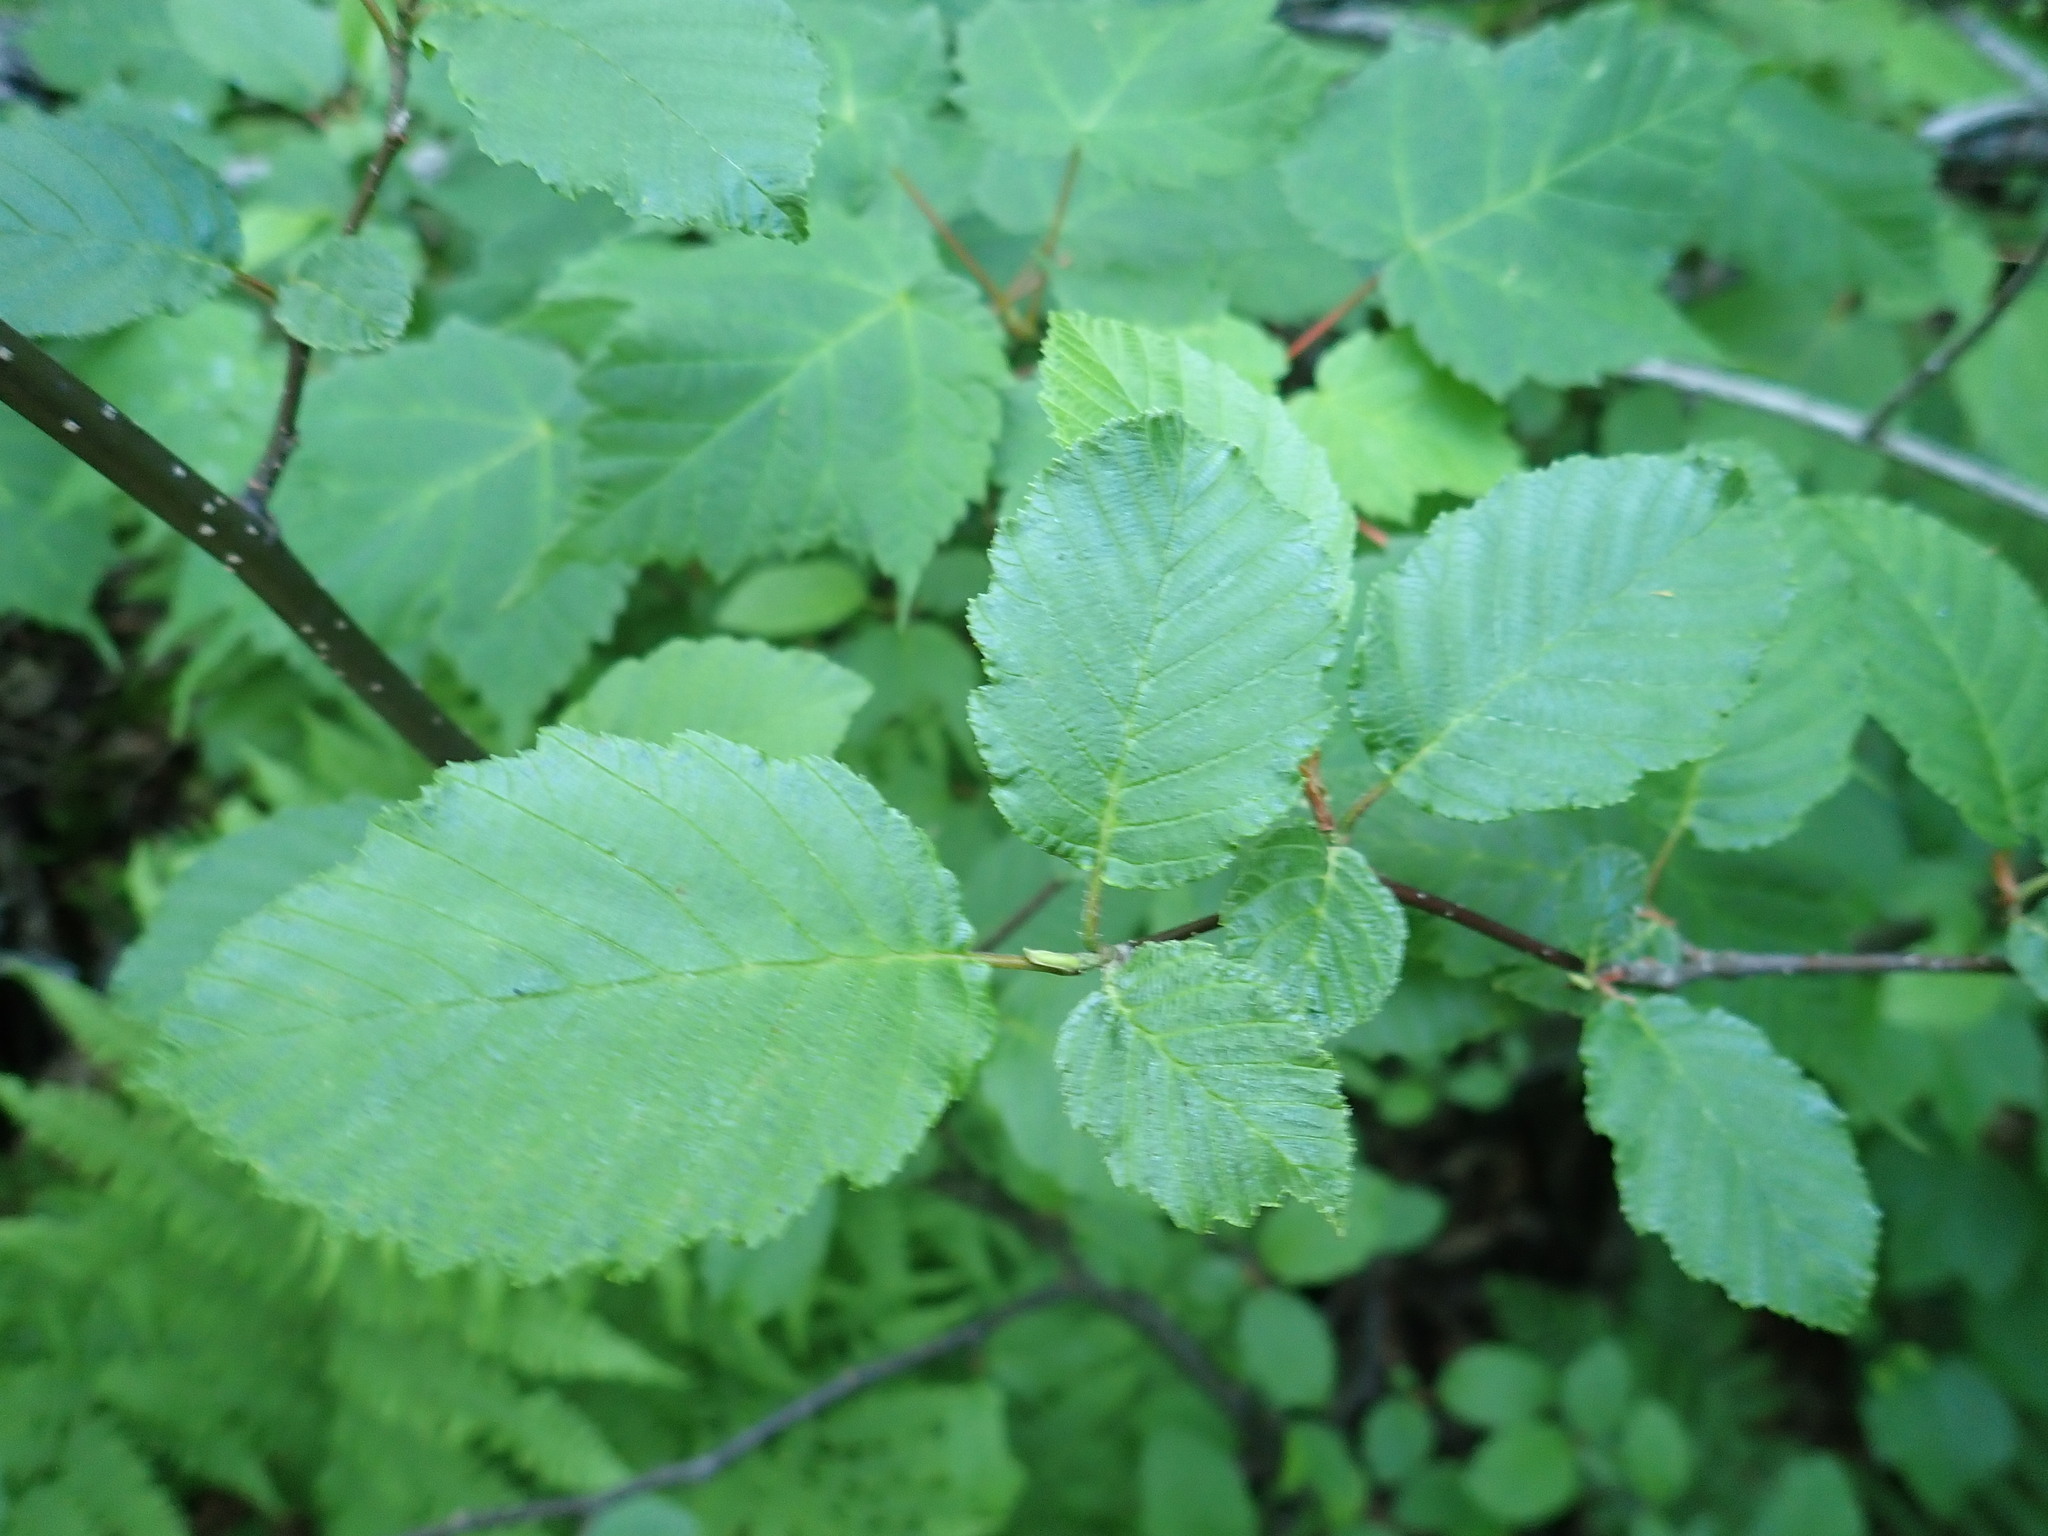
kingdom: Plantae
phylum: Tracheophyta
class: Magnoliopsida
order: Fagales
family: Betulaceae
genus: Alnus
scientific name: Alnus incana
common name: Grey alder
